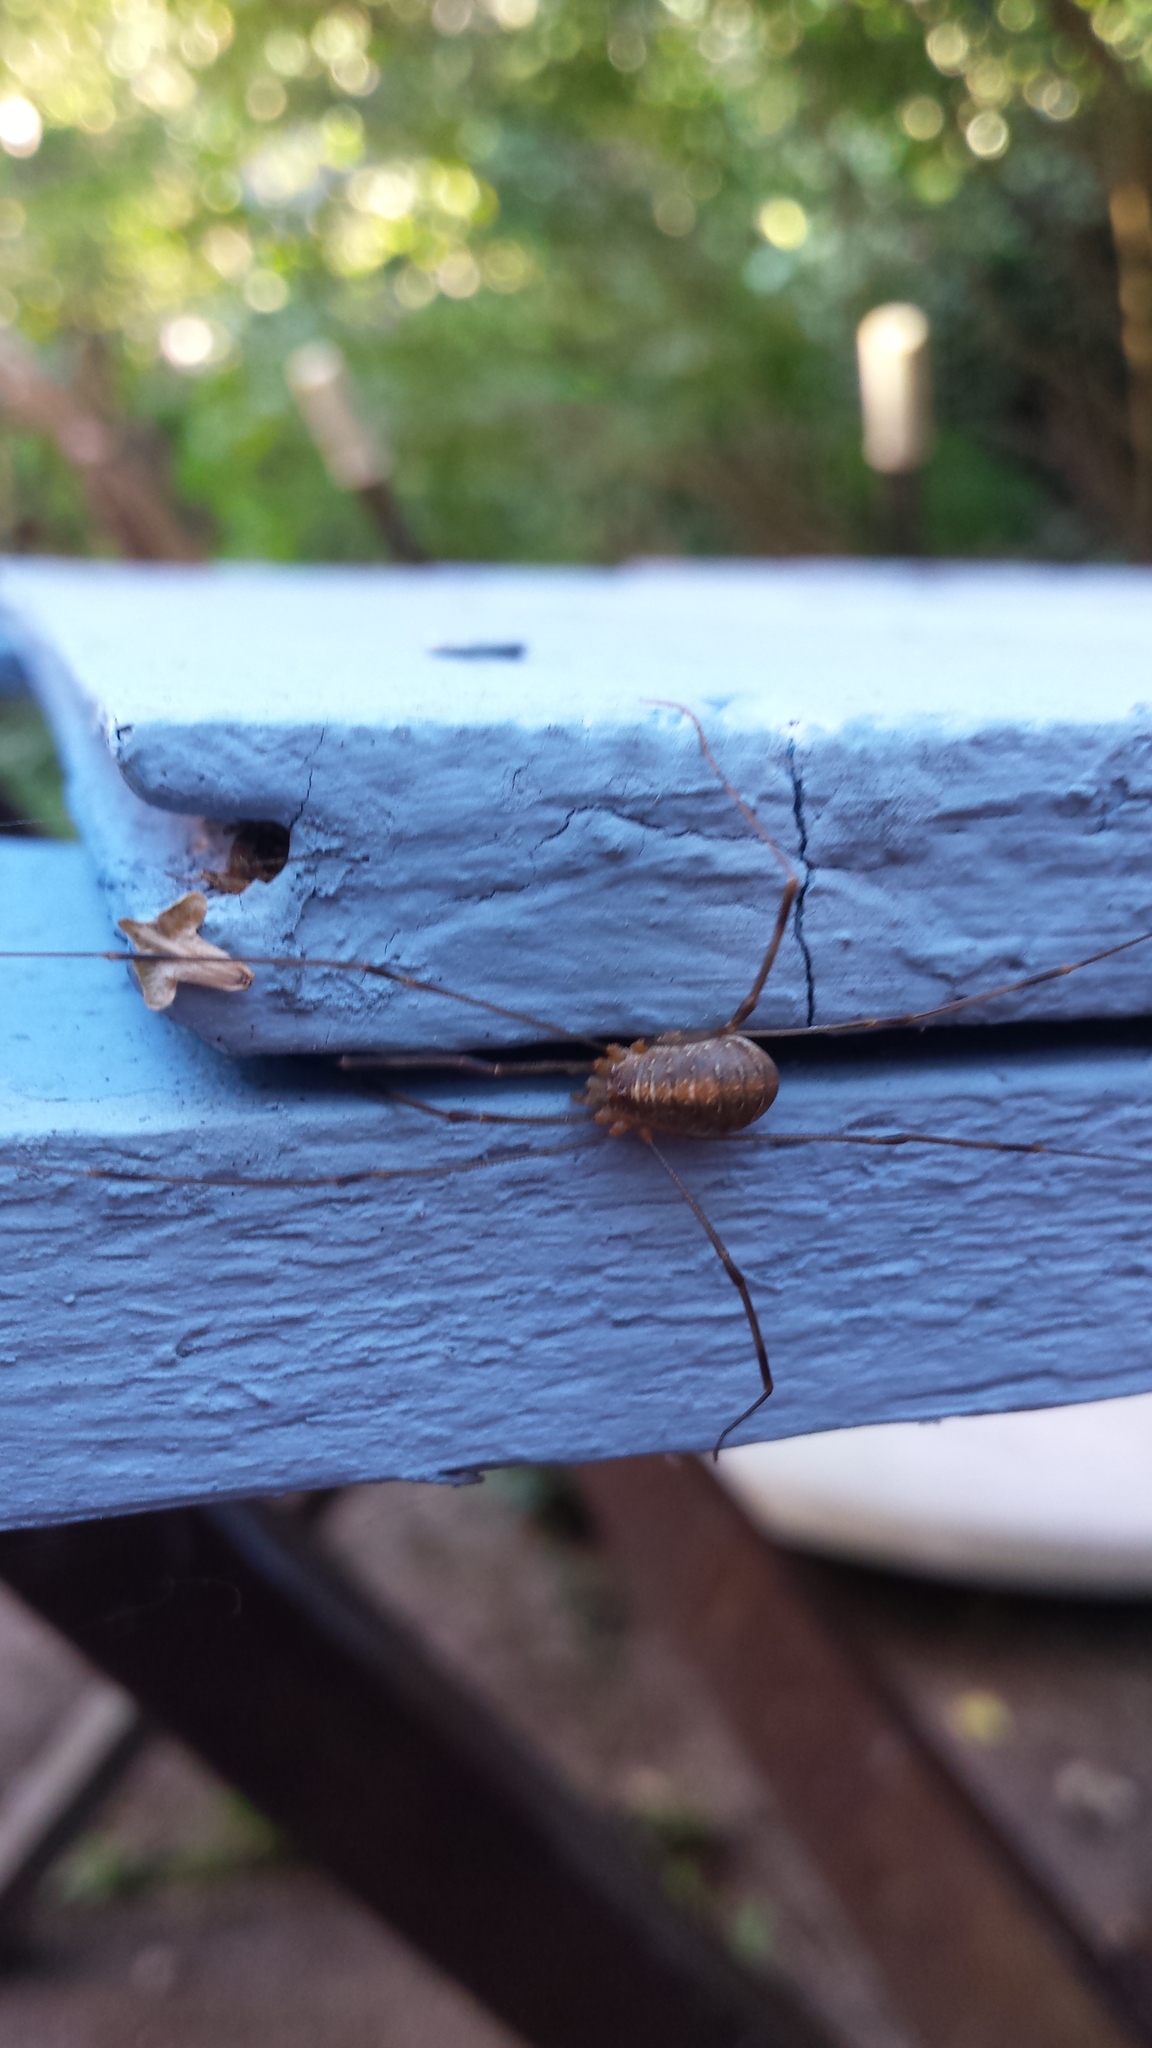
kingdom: Animalia
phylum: Arthropoda
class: Arachnida
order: Opiliones
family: Phalangiidae
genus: Opilio
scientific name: Opilio canestrinii
